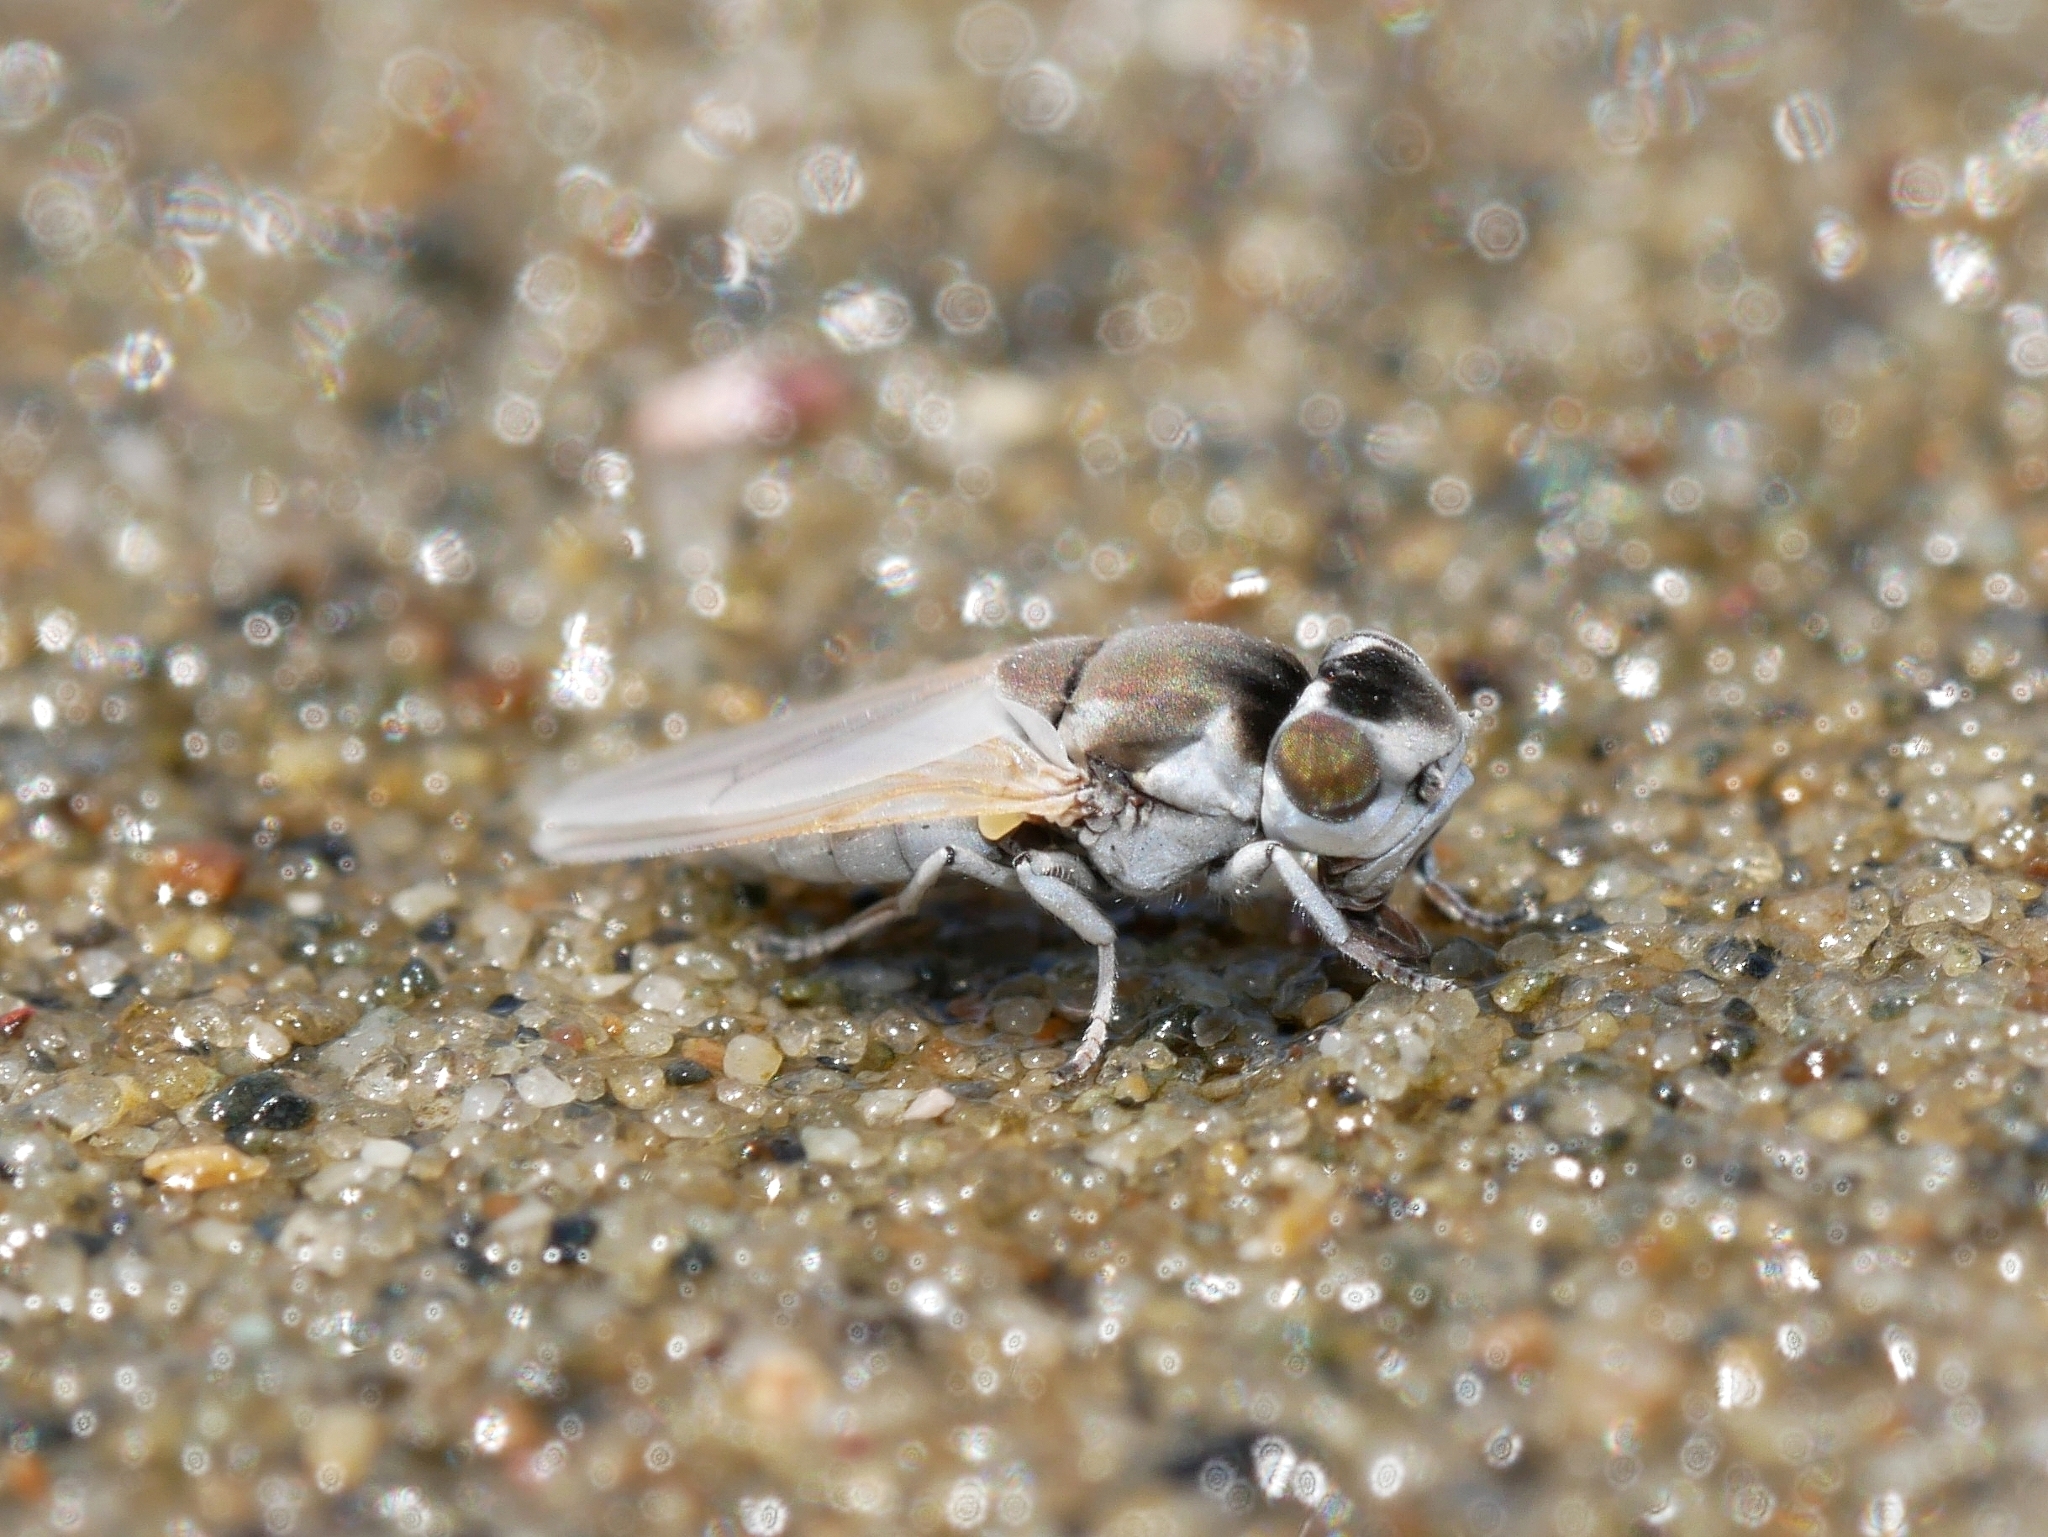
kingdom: Animalia
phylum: Arthropoda
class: Insecta
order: Diptera
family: Ephydridae
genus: Lipochaeta
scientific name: Lipochaeta ranica
